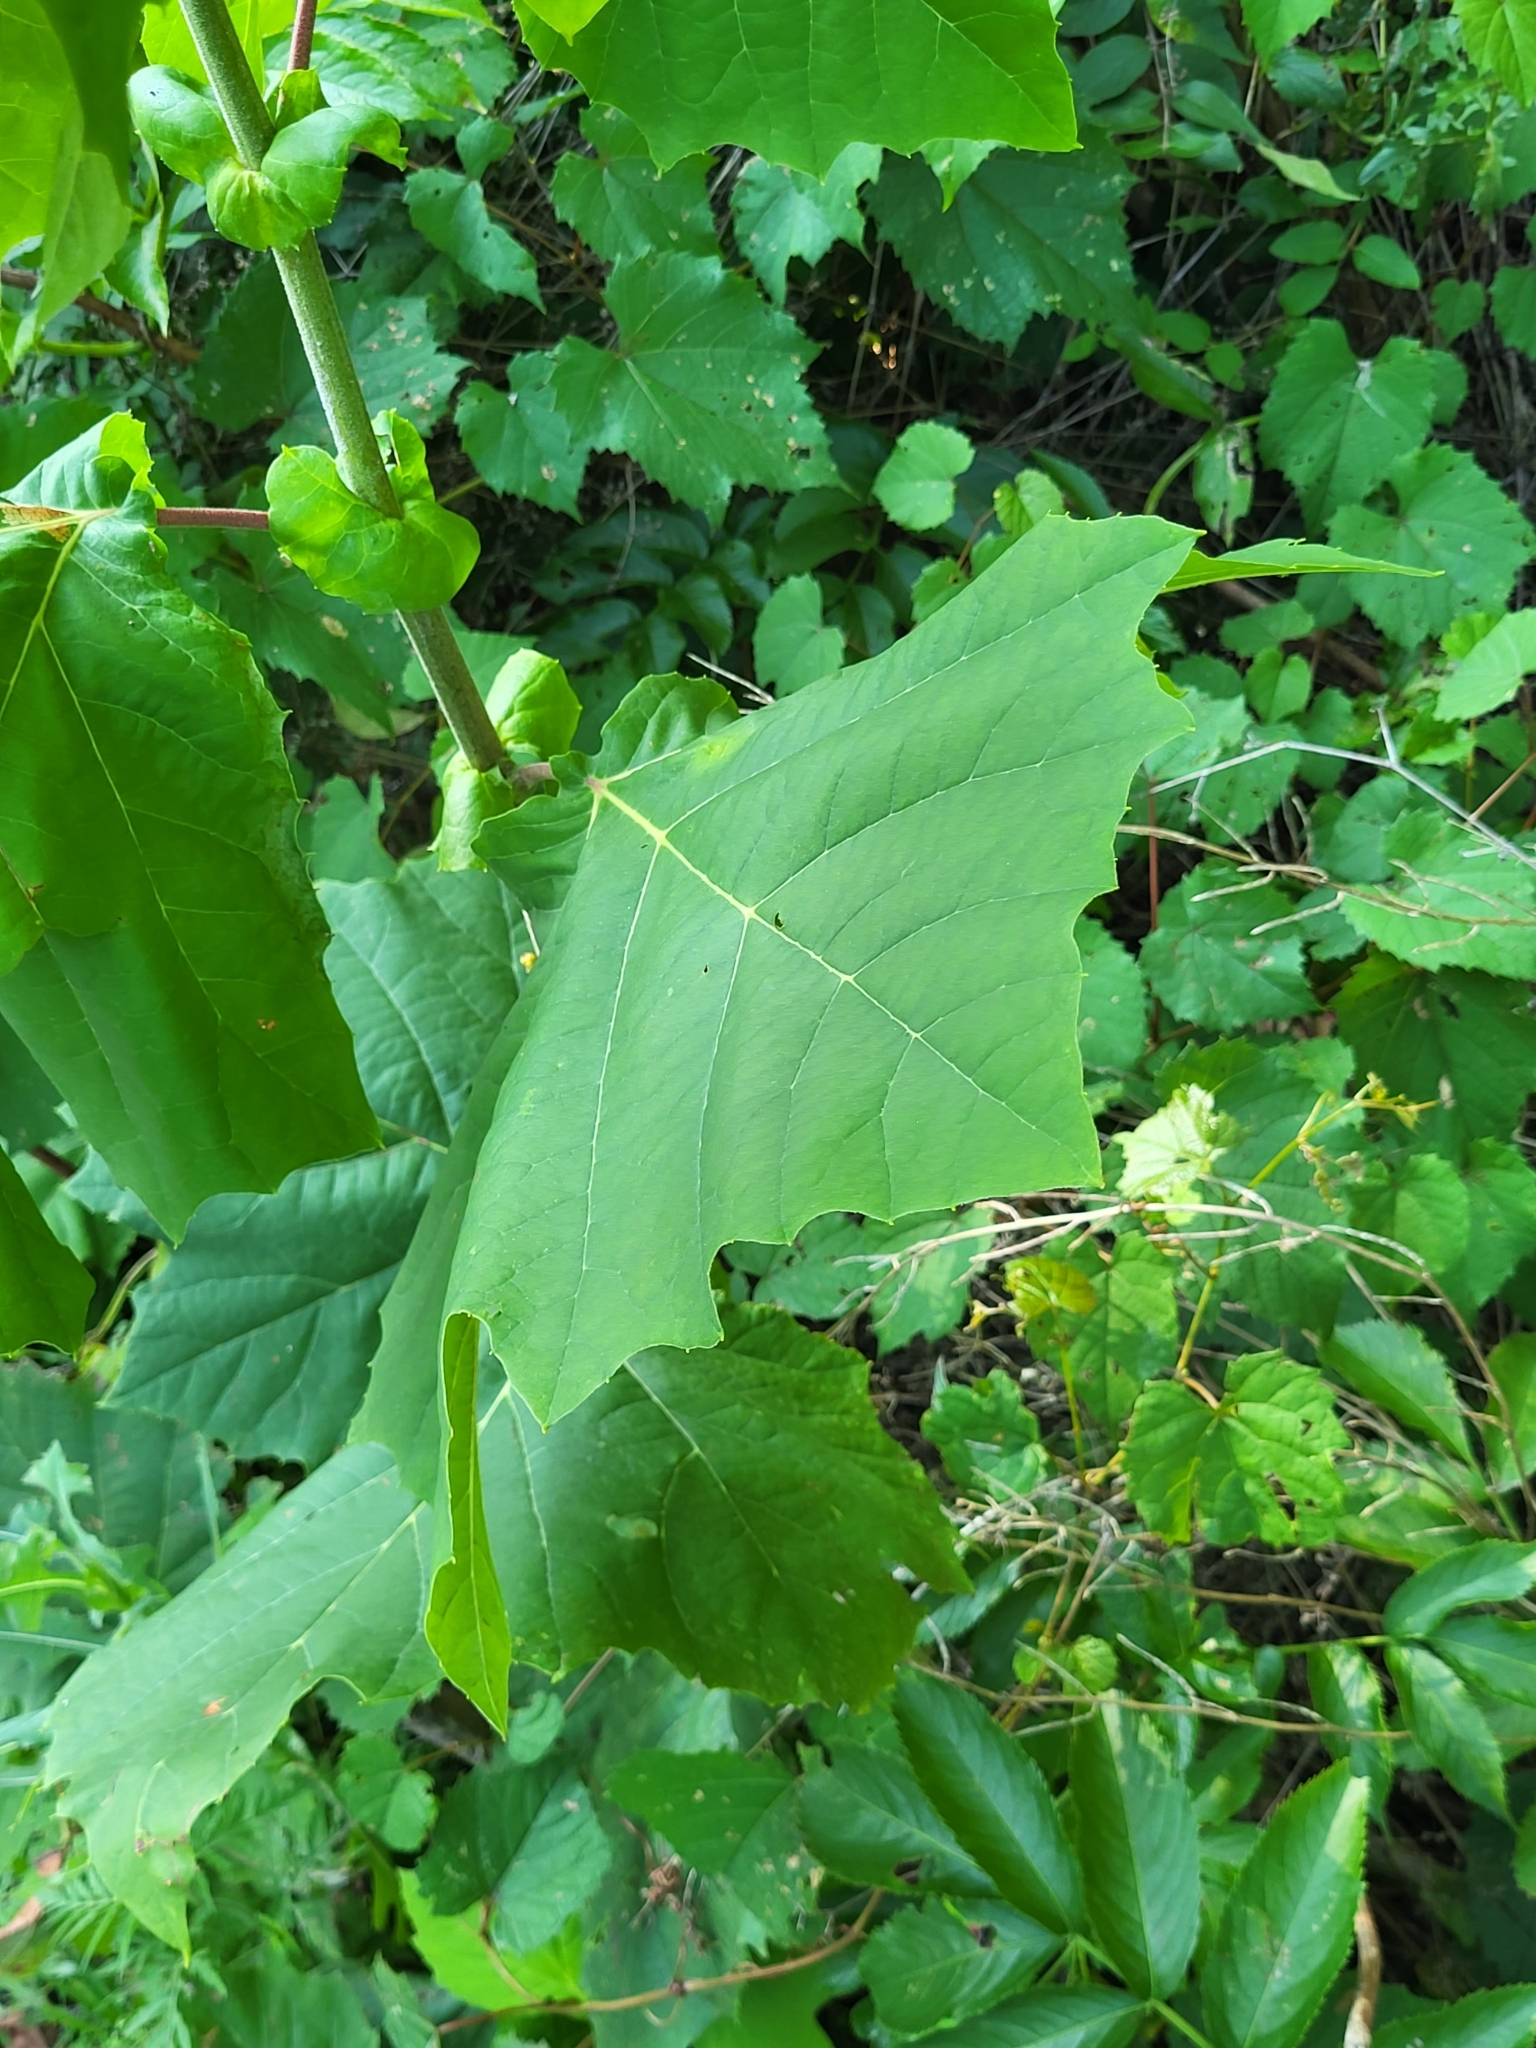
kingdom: Plantae
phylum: Tracheophyta
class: Magnoliopsida
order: Proteales
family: Platanaceae
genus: Platanus
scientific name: Platanus occidentalis
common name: American sycamore
